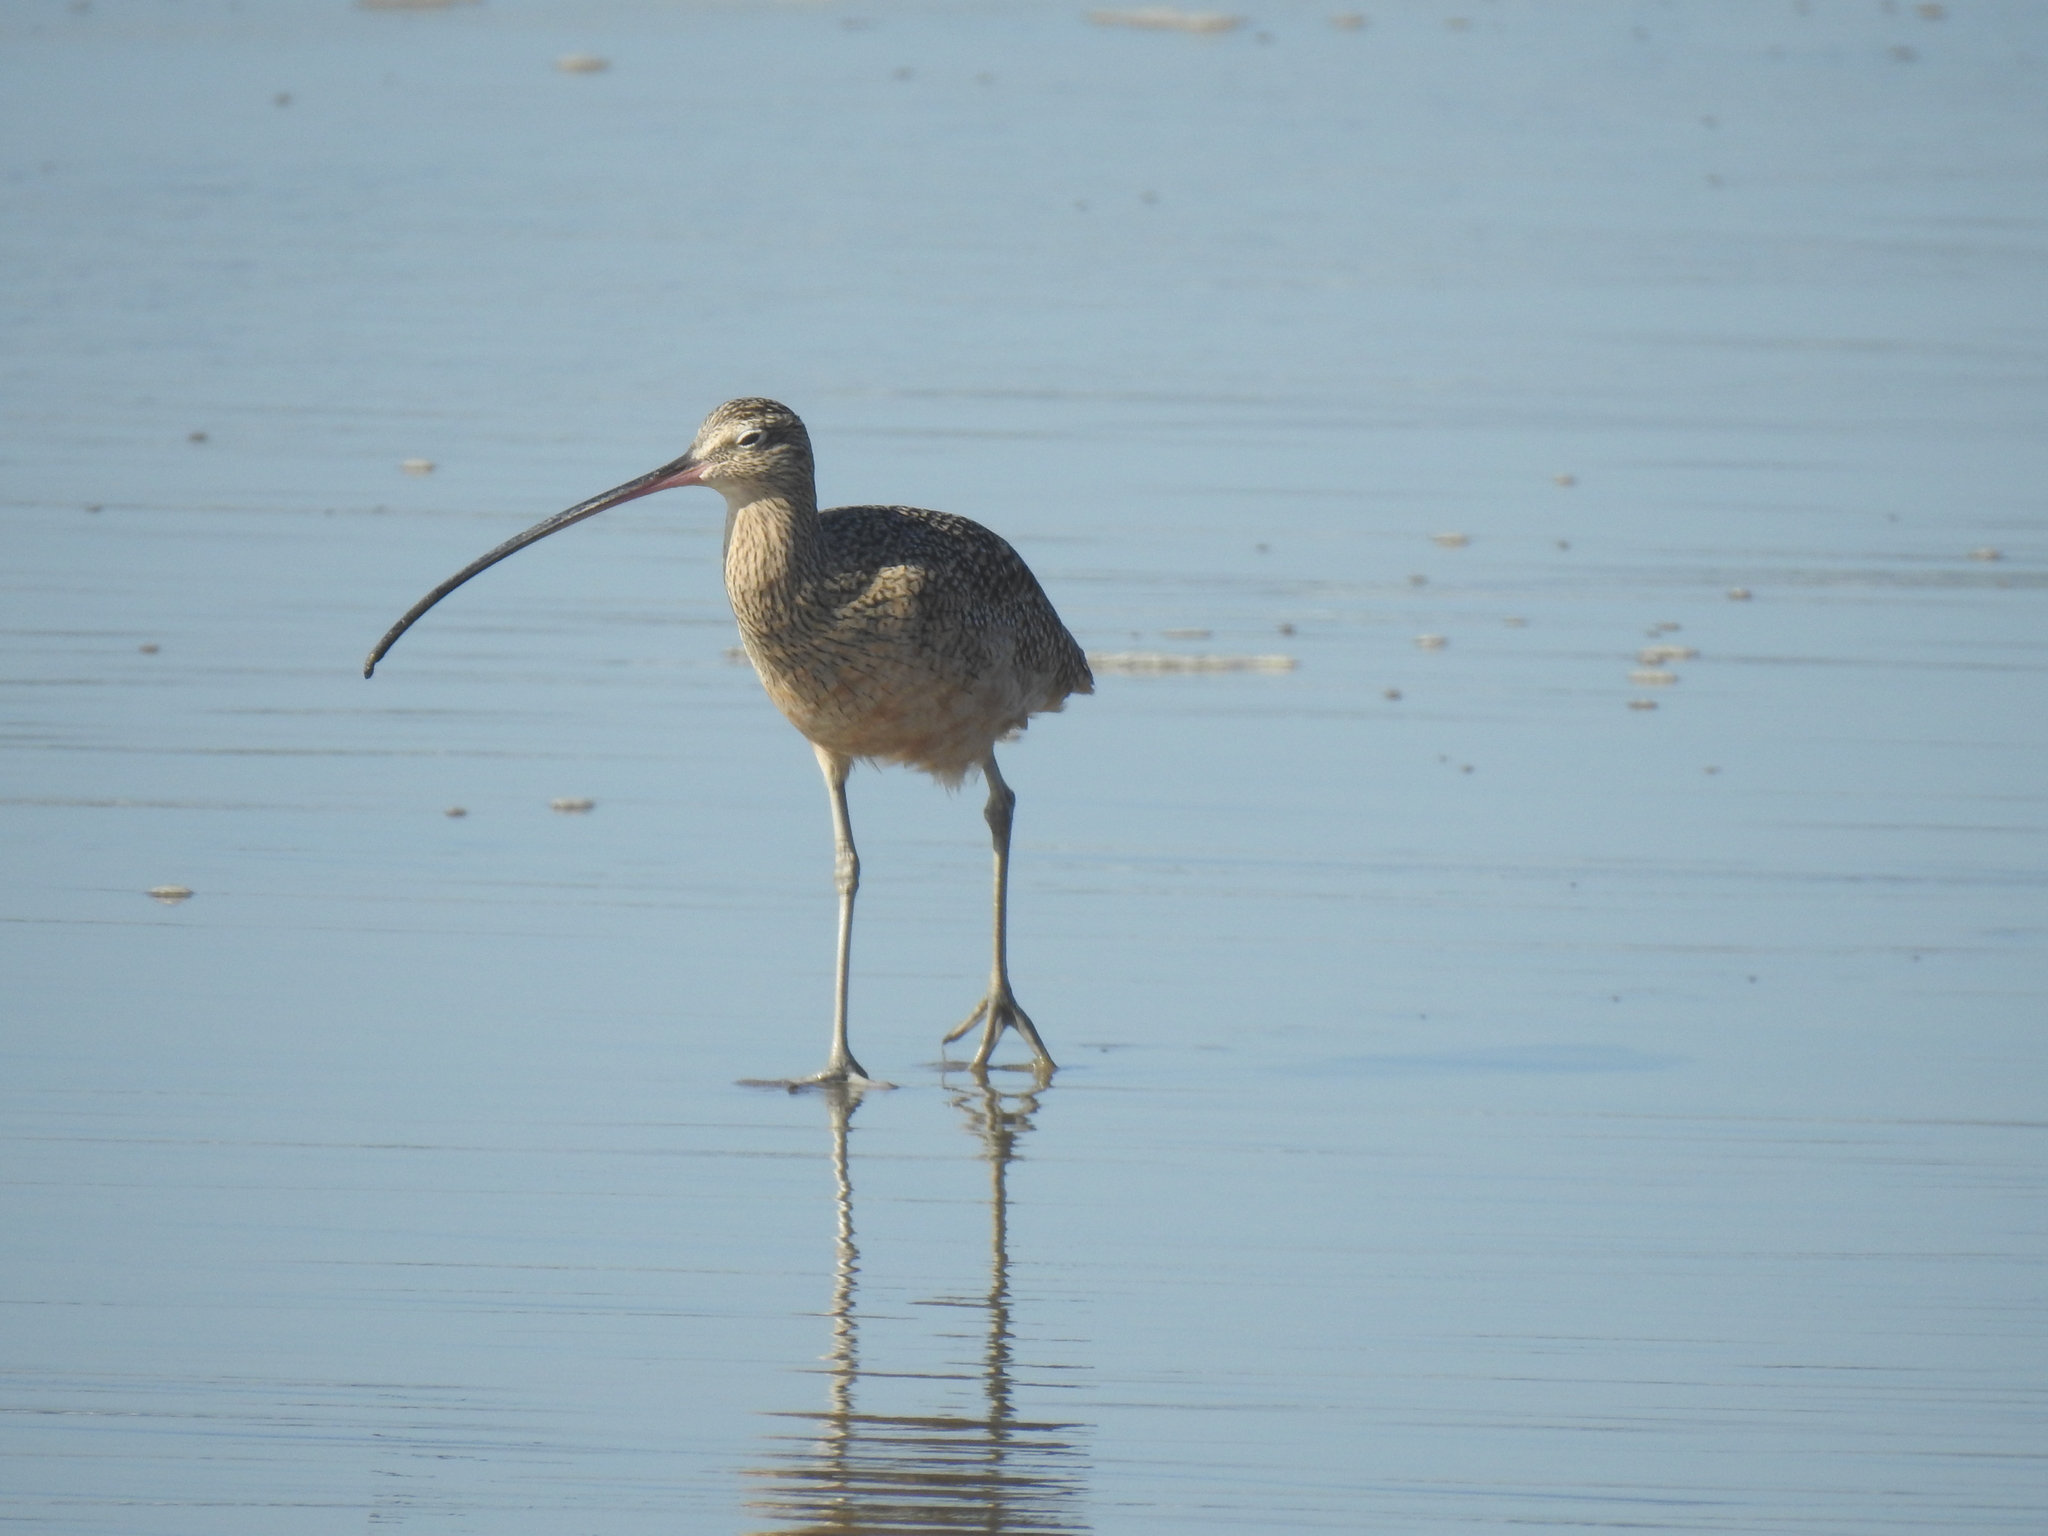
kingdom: Animalia
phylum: Chordata
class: Aves
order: Charadriiformes
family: Scolopacidae
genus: Numenius
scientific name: Numenius americanus
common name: Long-billed curlew
